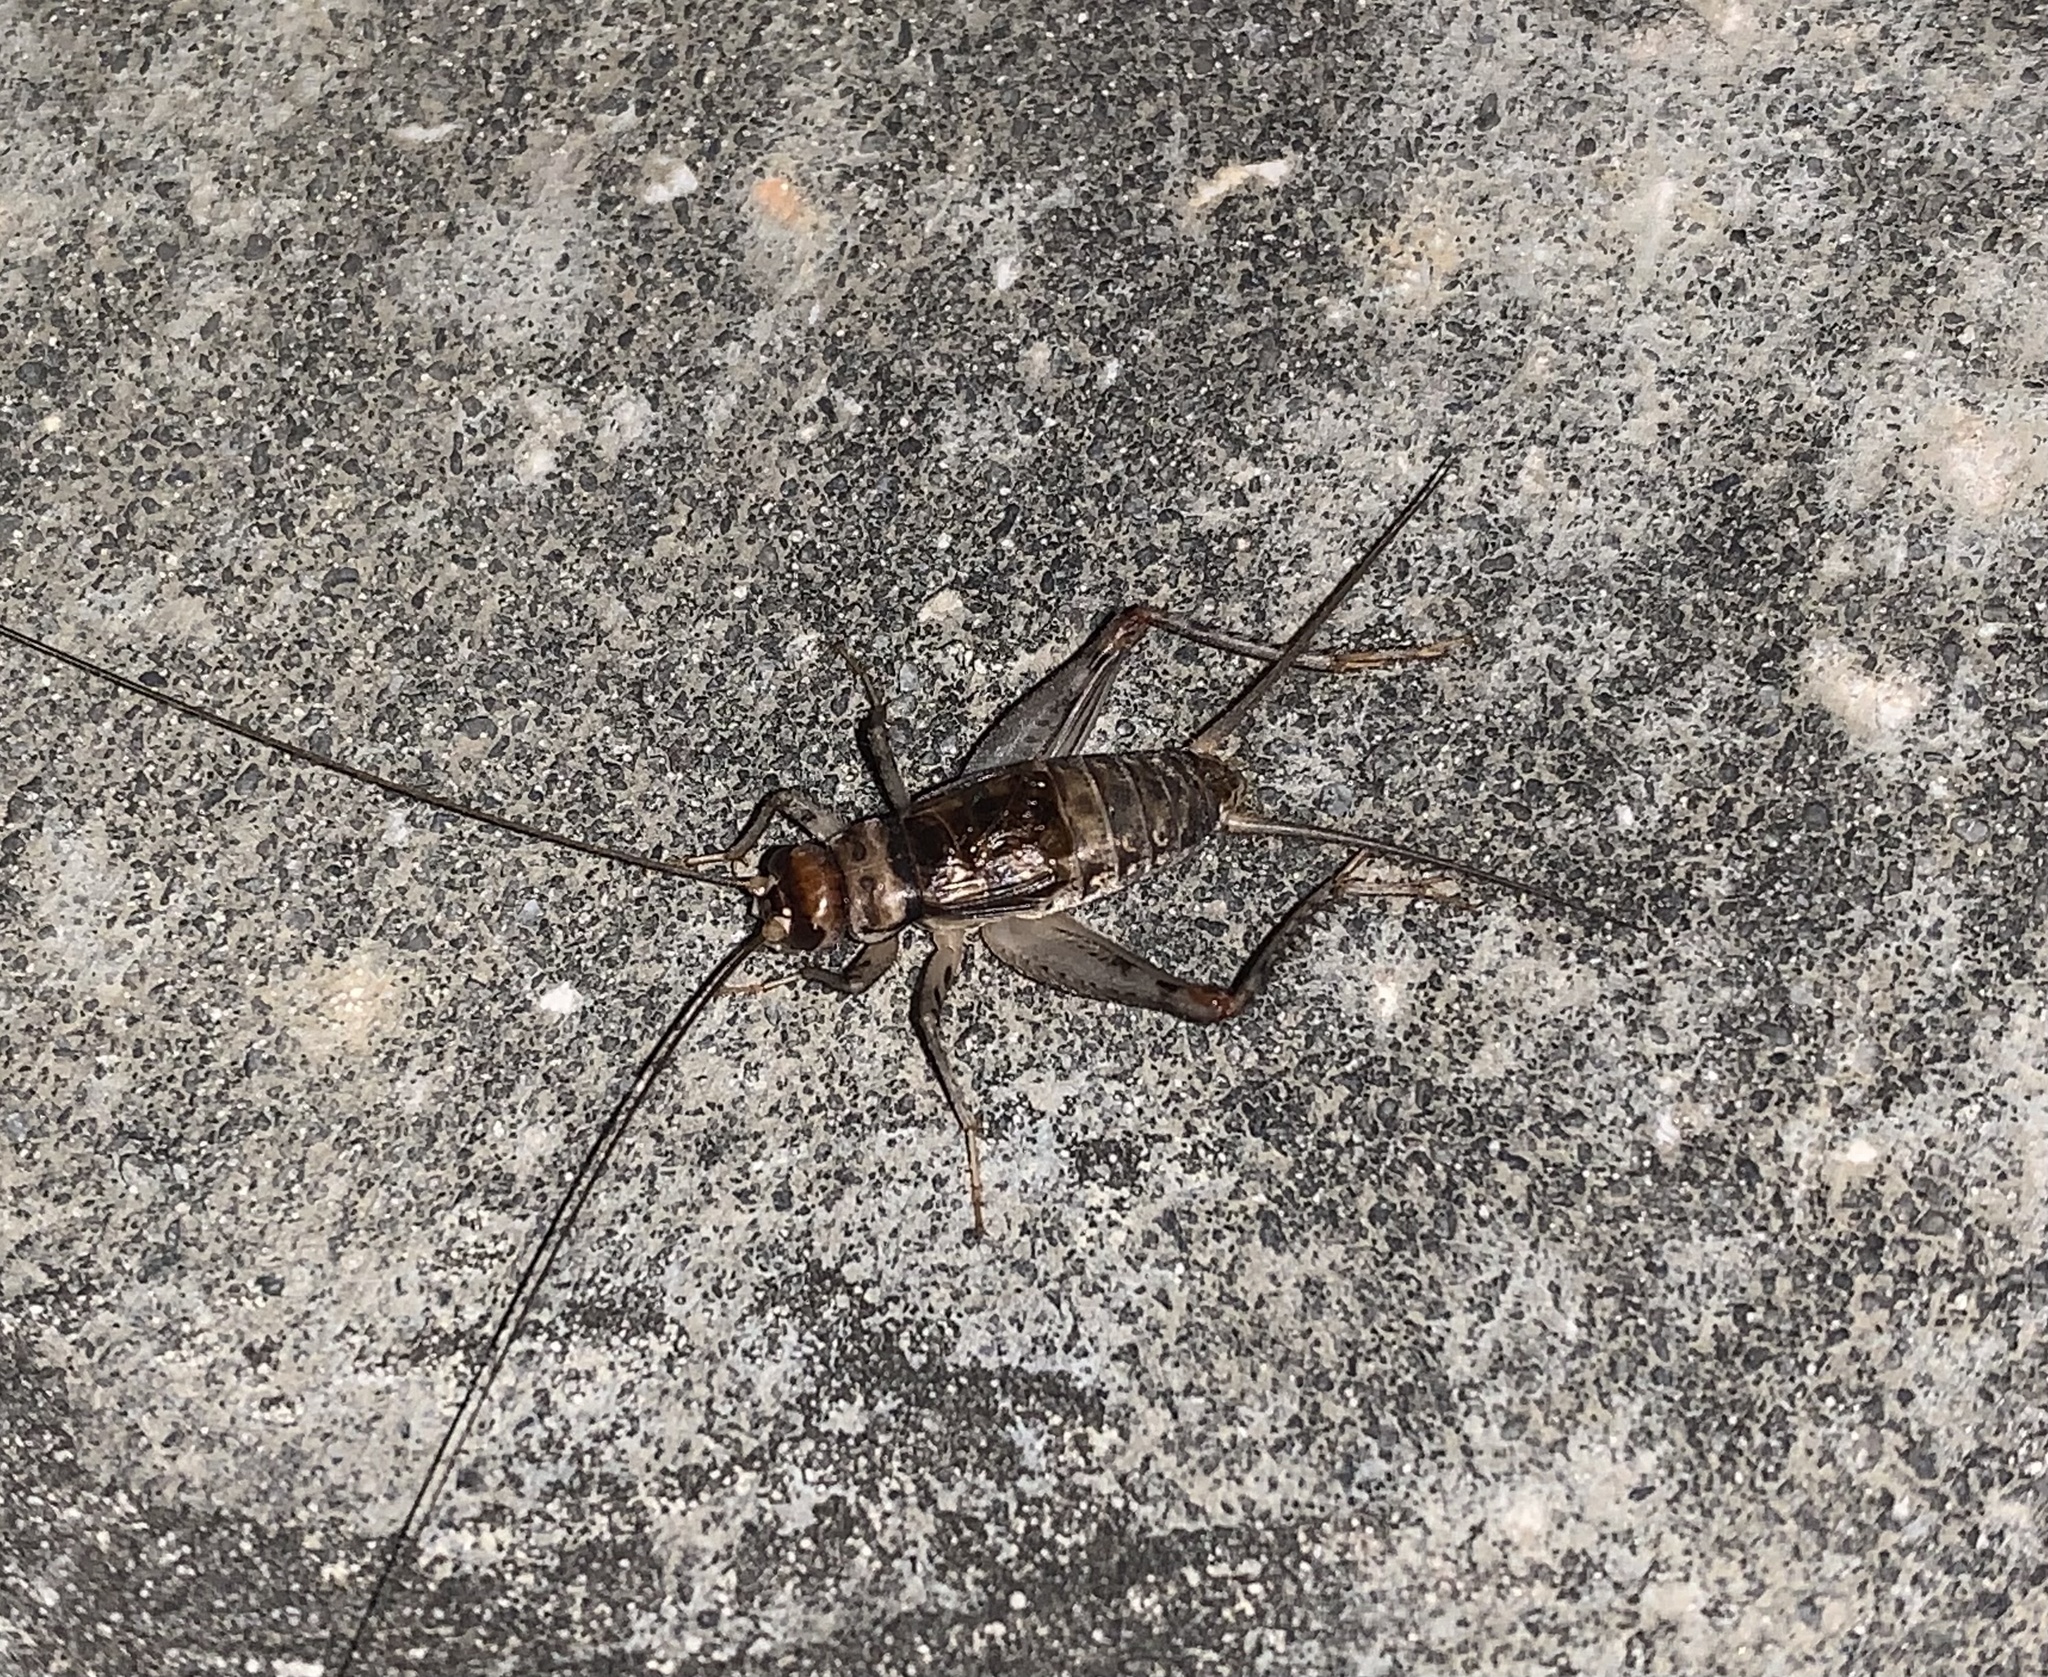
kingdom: Animalia
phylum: Arthropoda
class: Insecta
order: Orthoptera
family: Gryllidae
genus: Gryllodes
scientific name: Gryllodes sigillatus
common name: Tropical house cricket
